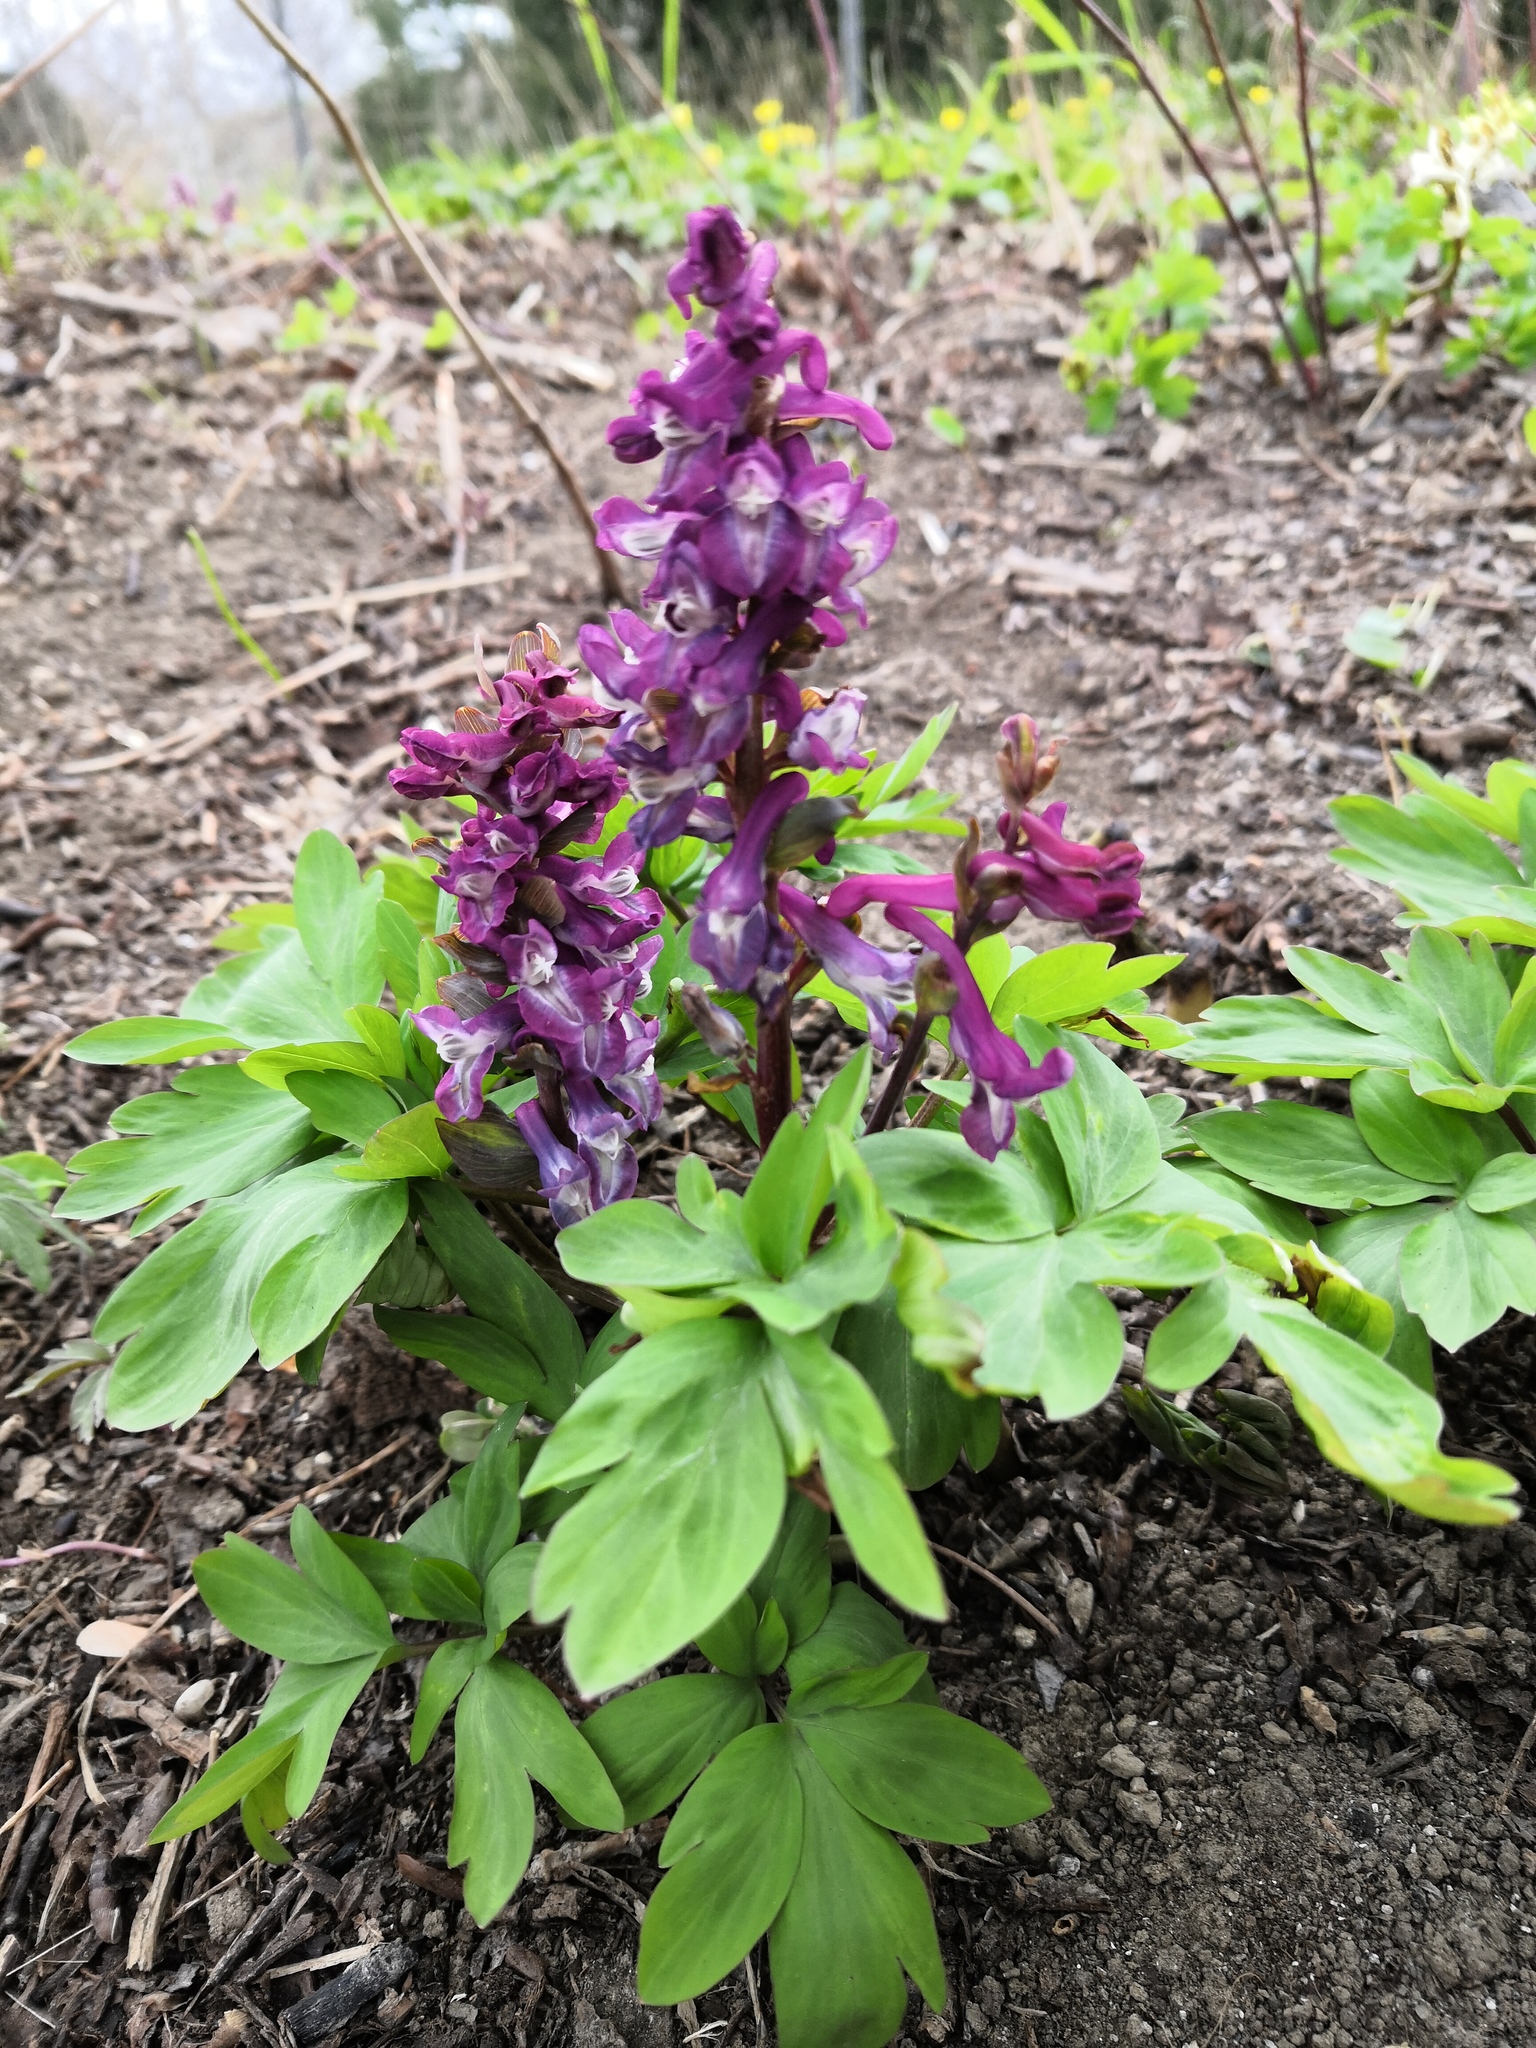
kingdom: Plantae
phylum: Tracheophyta
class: Magnoliopsida
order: Ranunculales
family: Papaveraceae
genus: Corydalis
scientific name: Corydalis cava
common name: Hollowroot
